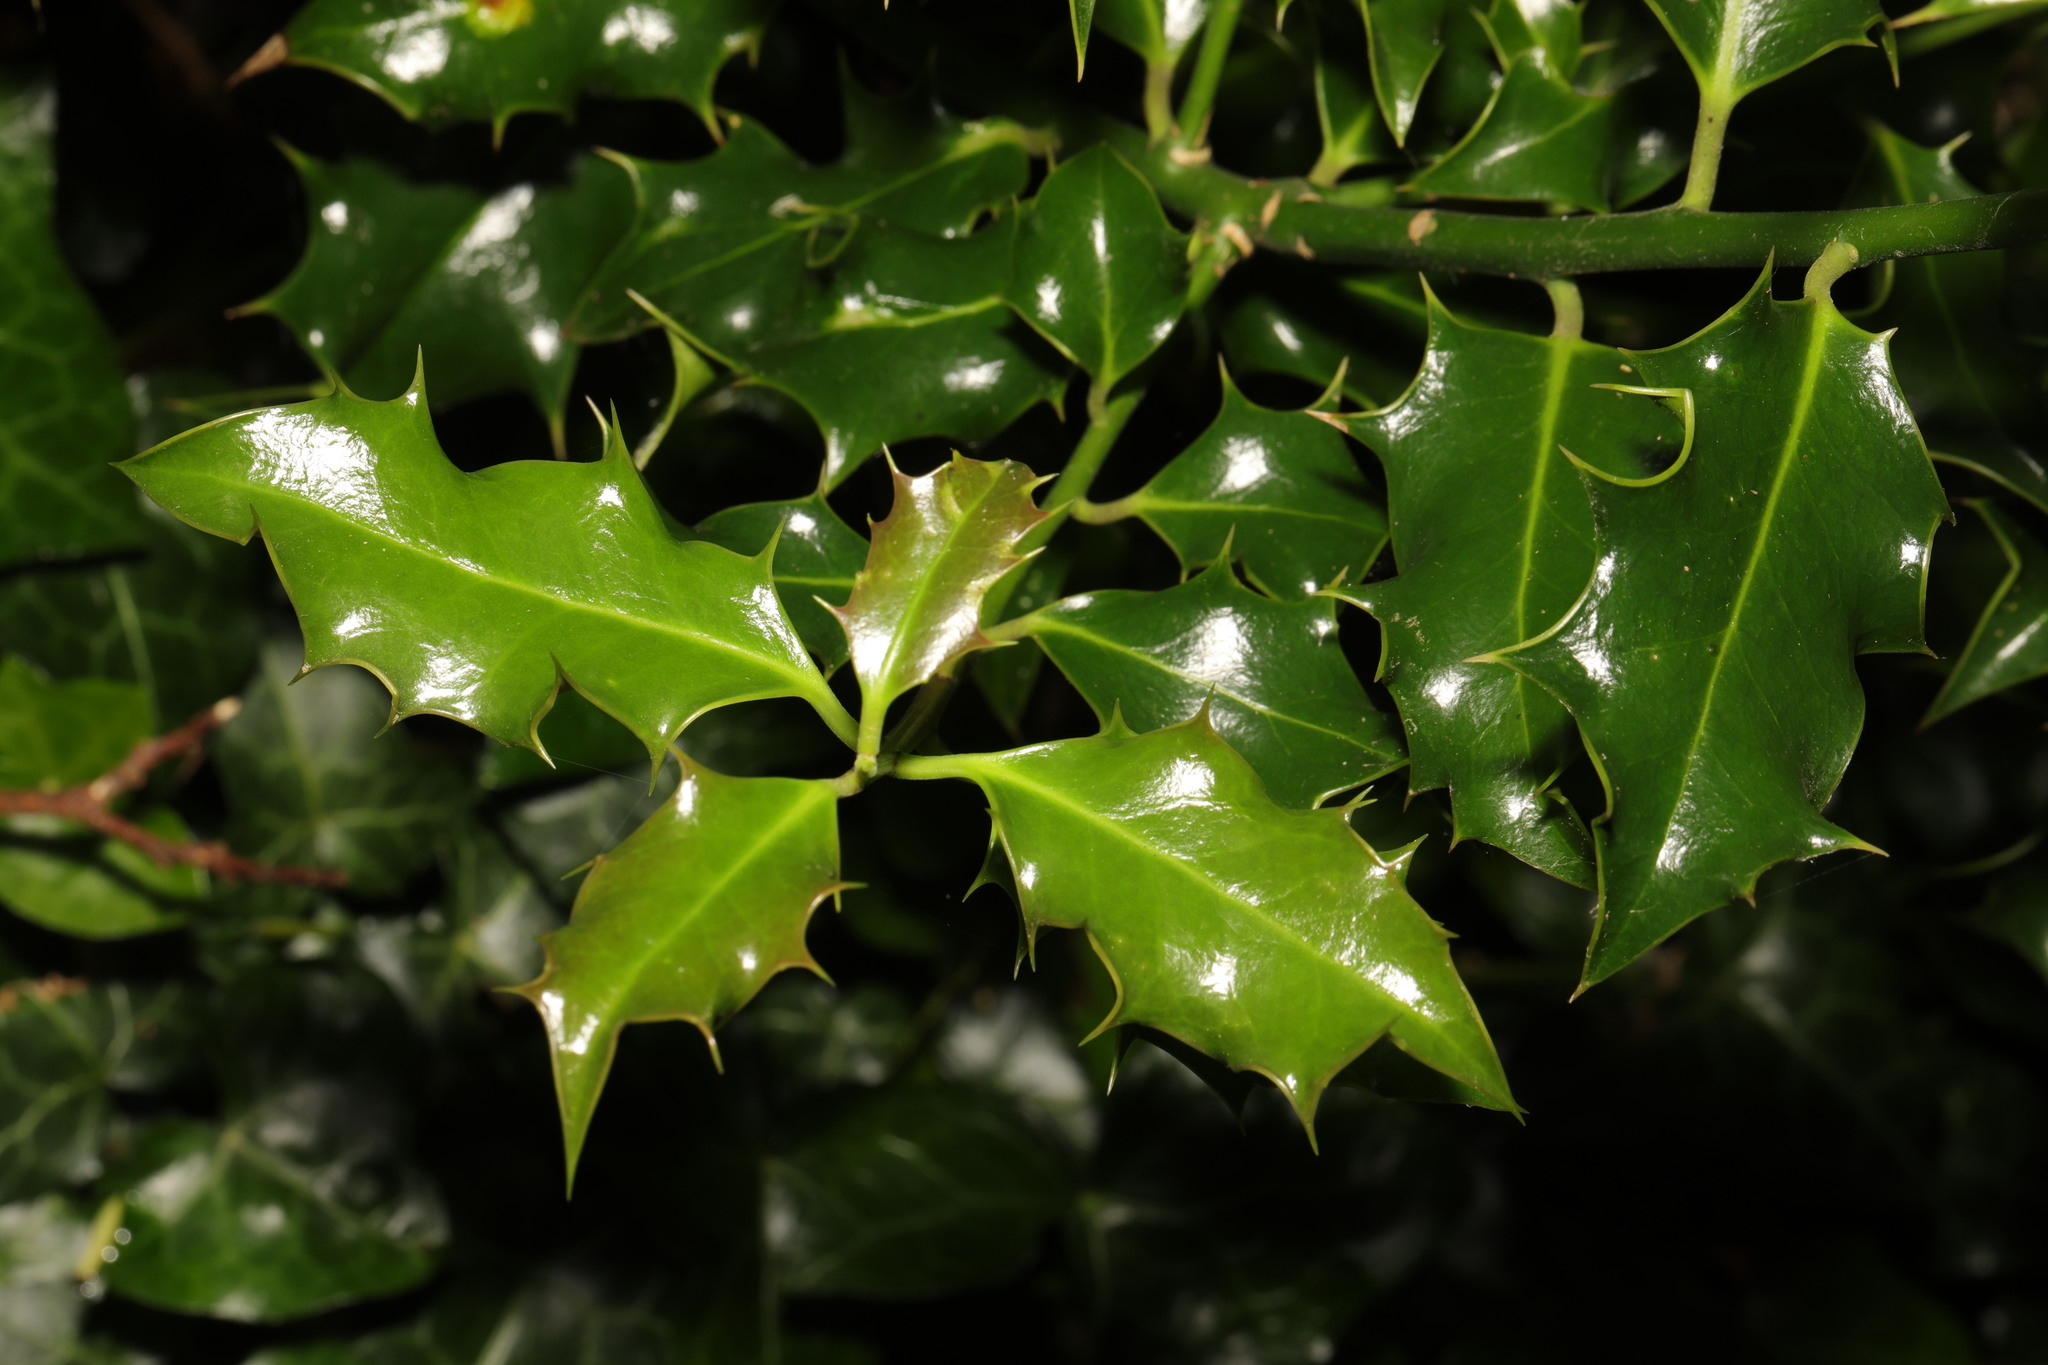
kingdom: Plantae
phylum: Tracheophyta
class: Magnoliopsida
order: Aquifoliales
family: Aquifoliaceae
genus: Ilex
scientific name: Ilex aquifolium
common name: English holly
